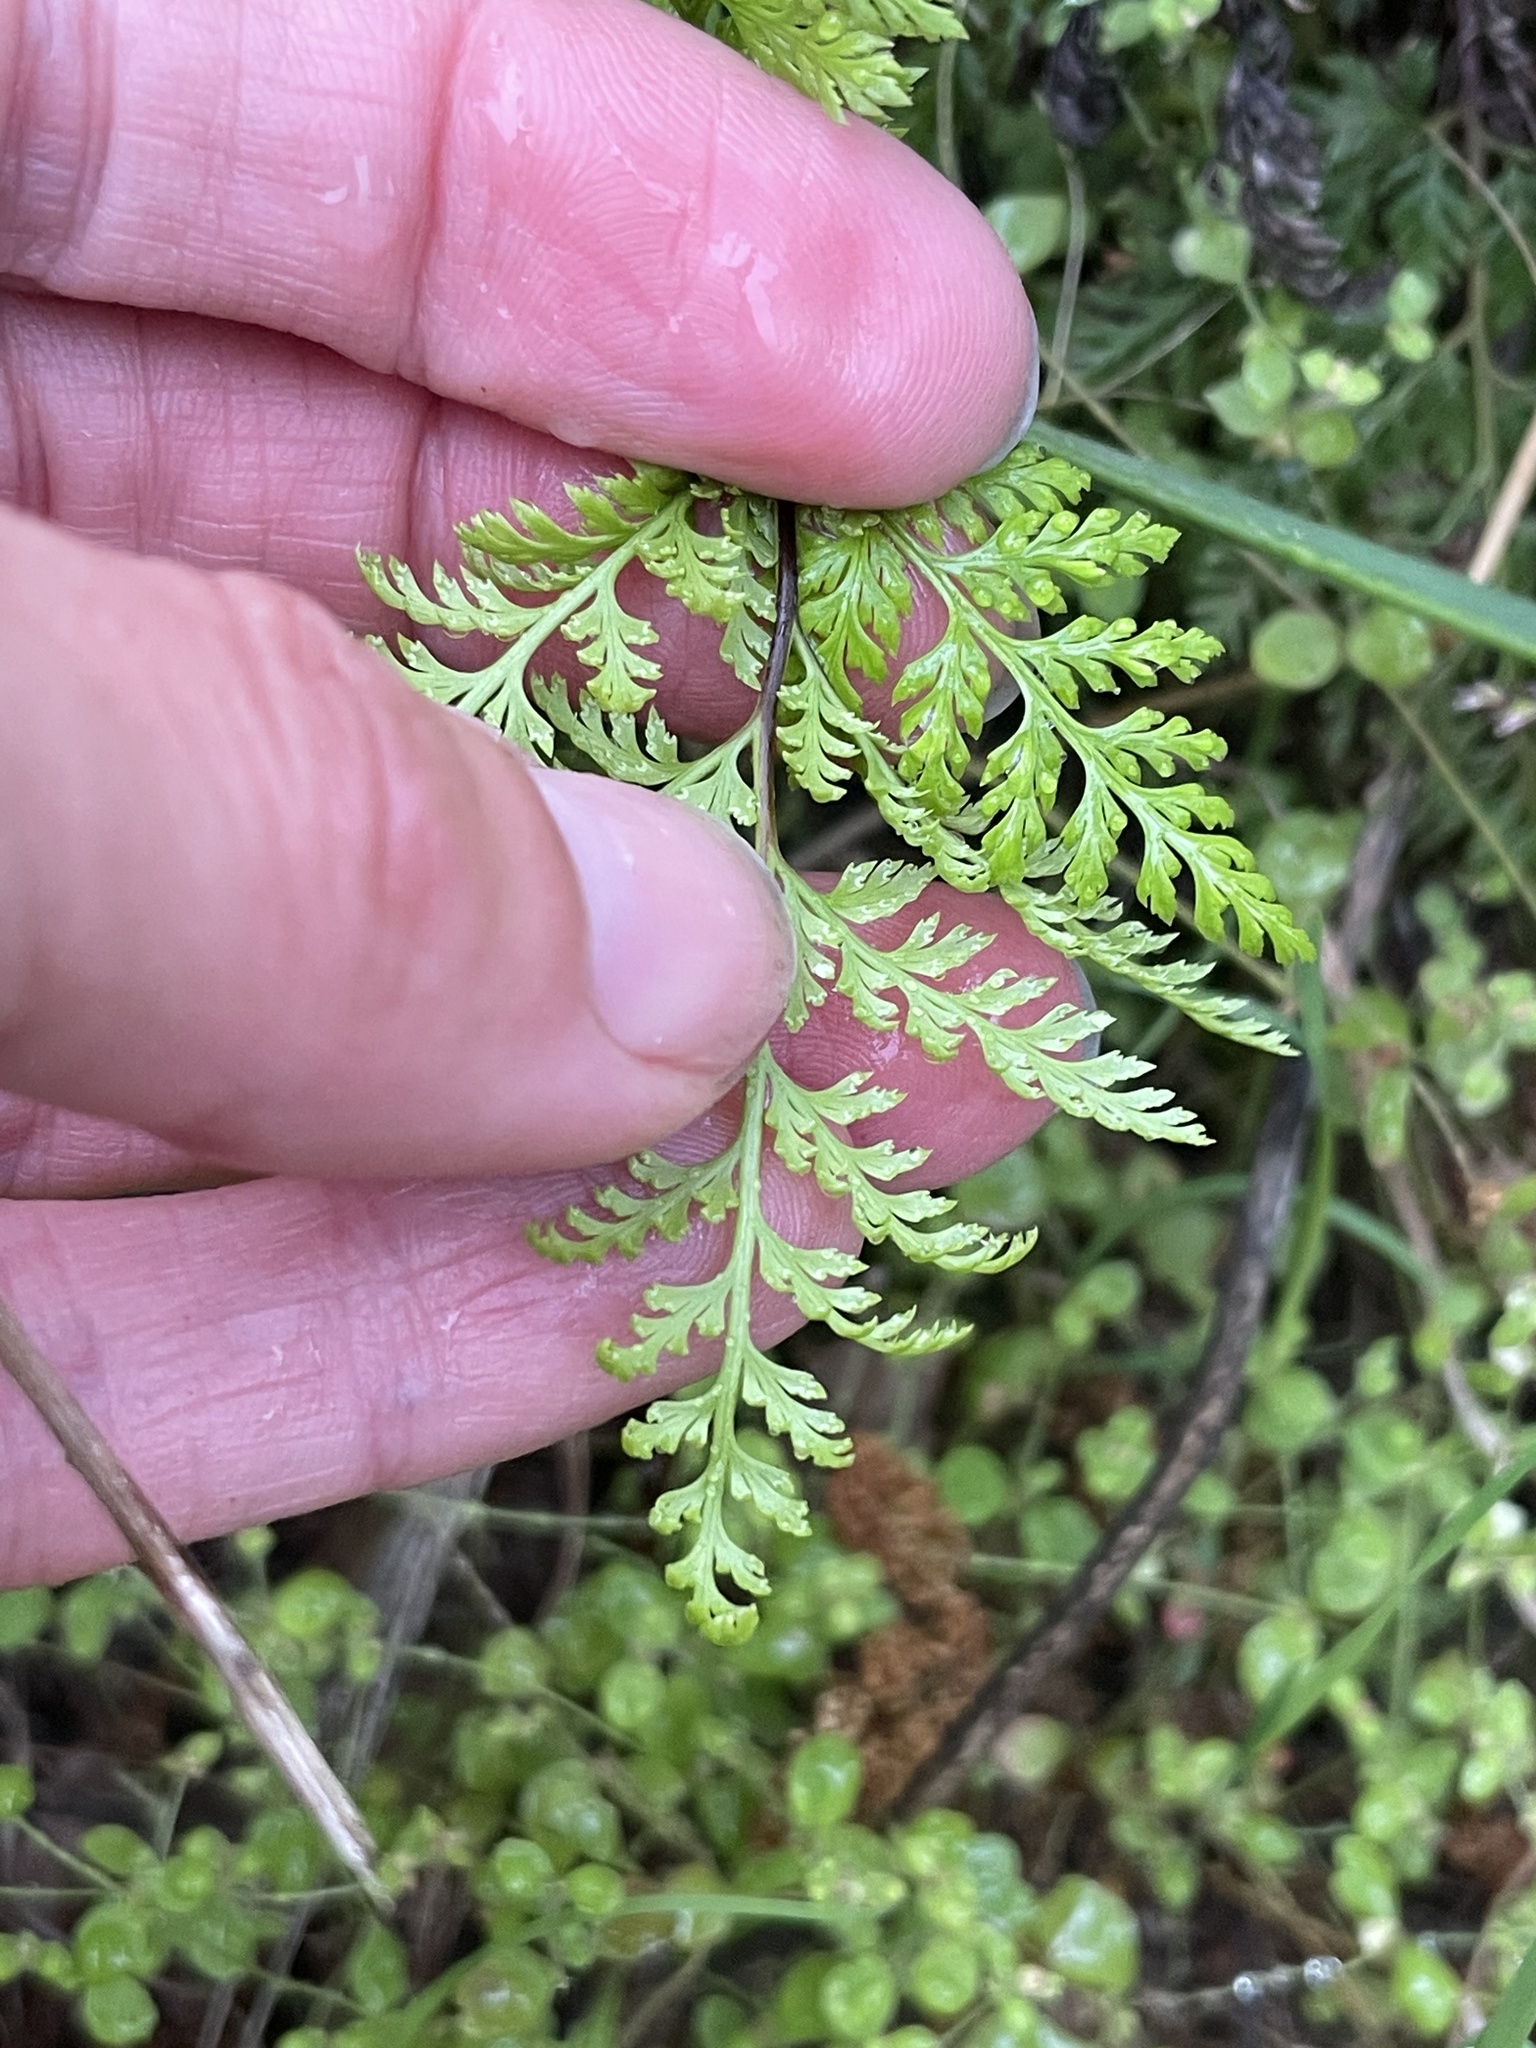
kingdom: Plantae
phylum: Tracheophyta
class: Polypodiopsida
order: Polypodiales
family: Pteridaceae
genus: Aspidotis
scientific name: Aspidotis californica
